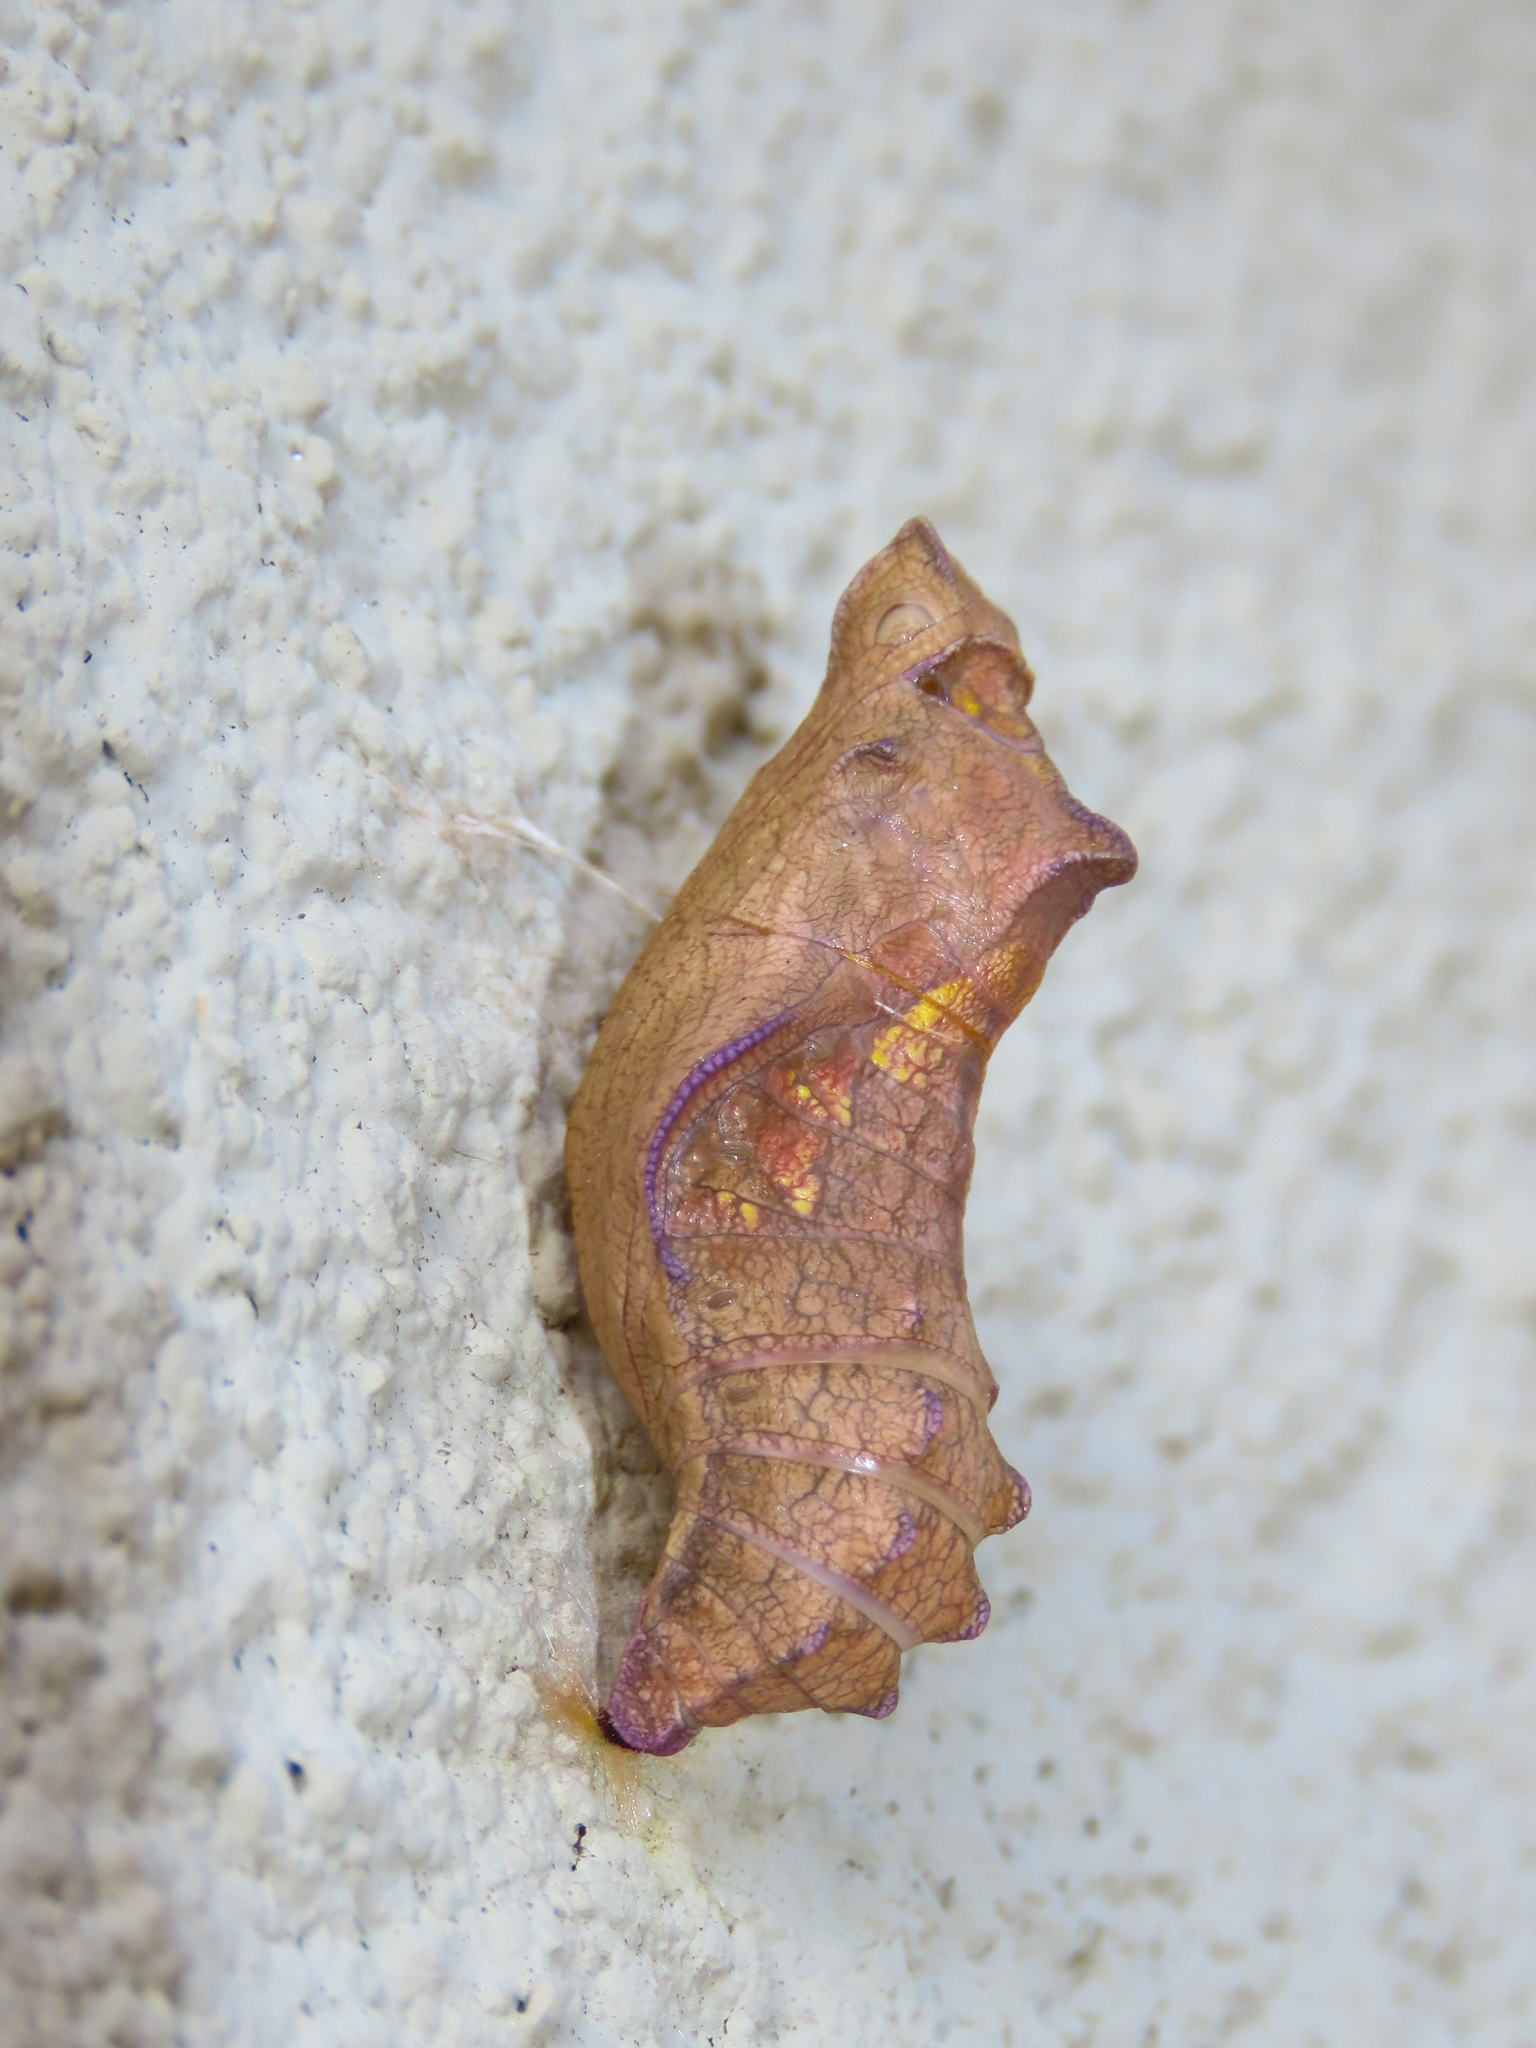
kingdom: Animalia
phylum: Arthropoda
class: Insecta
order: Lepidoptera
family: Papilionidae
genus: Battus
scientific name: Battus philenor
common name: Pipevine swallowtail
